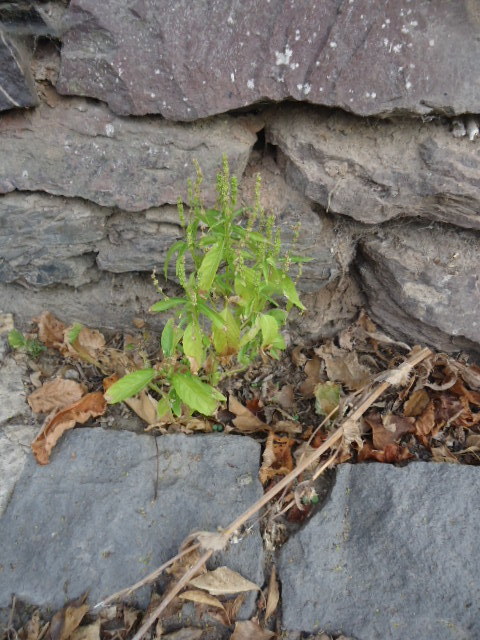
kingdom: Plantae
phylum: Tracheophyta
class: Magnoliopsida
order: Malpighiales
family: Euphorbiaceae
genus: Mercurialis
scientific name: Mercurialis annua
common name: Annual mercury
